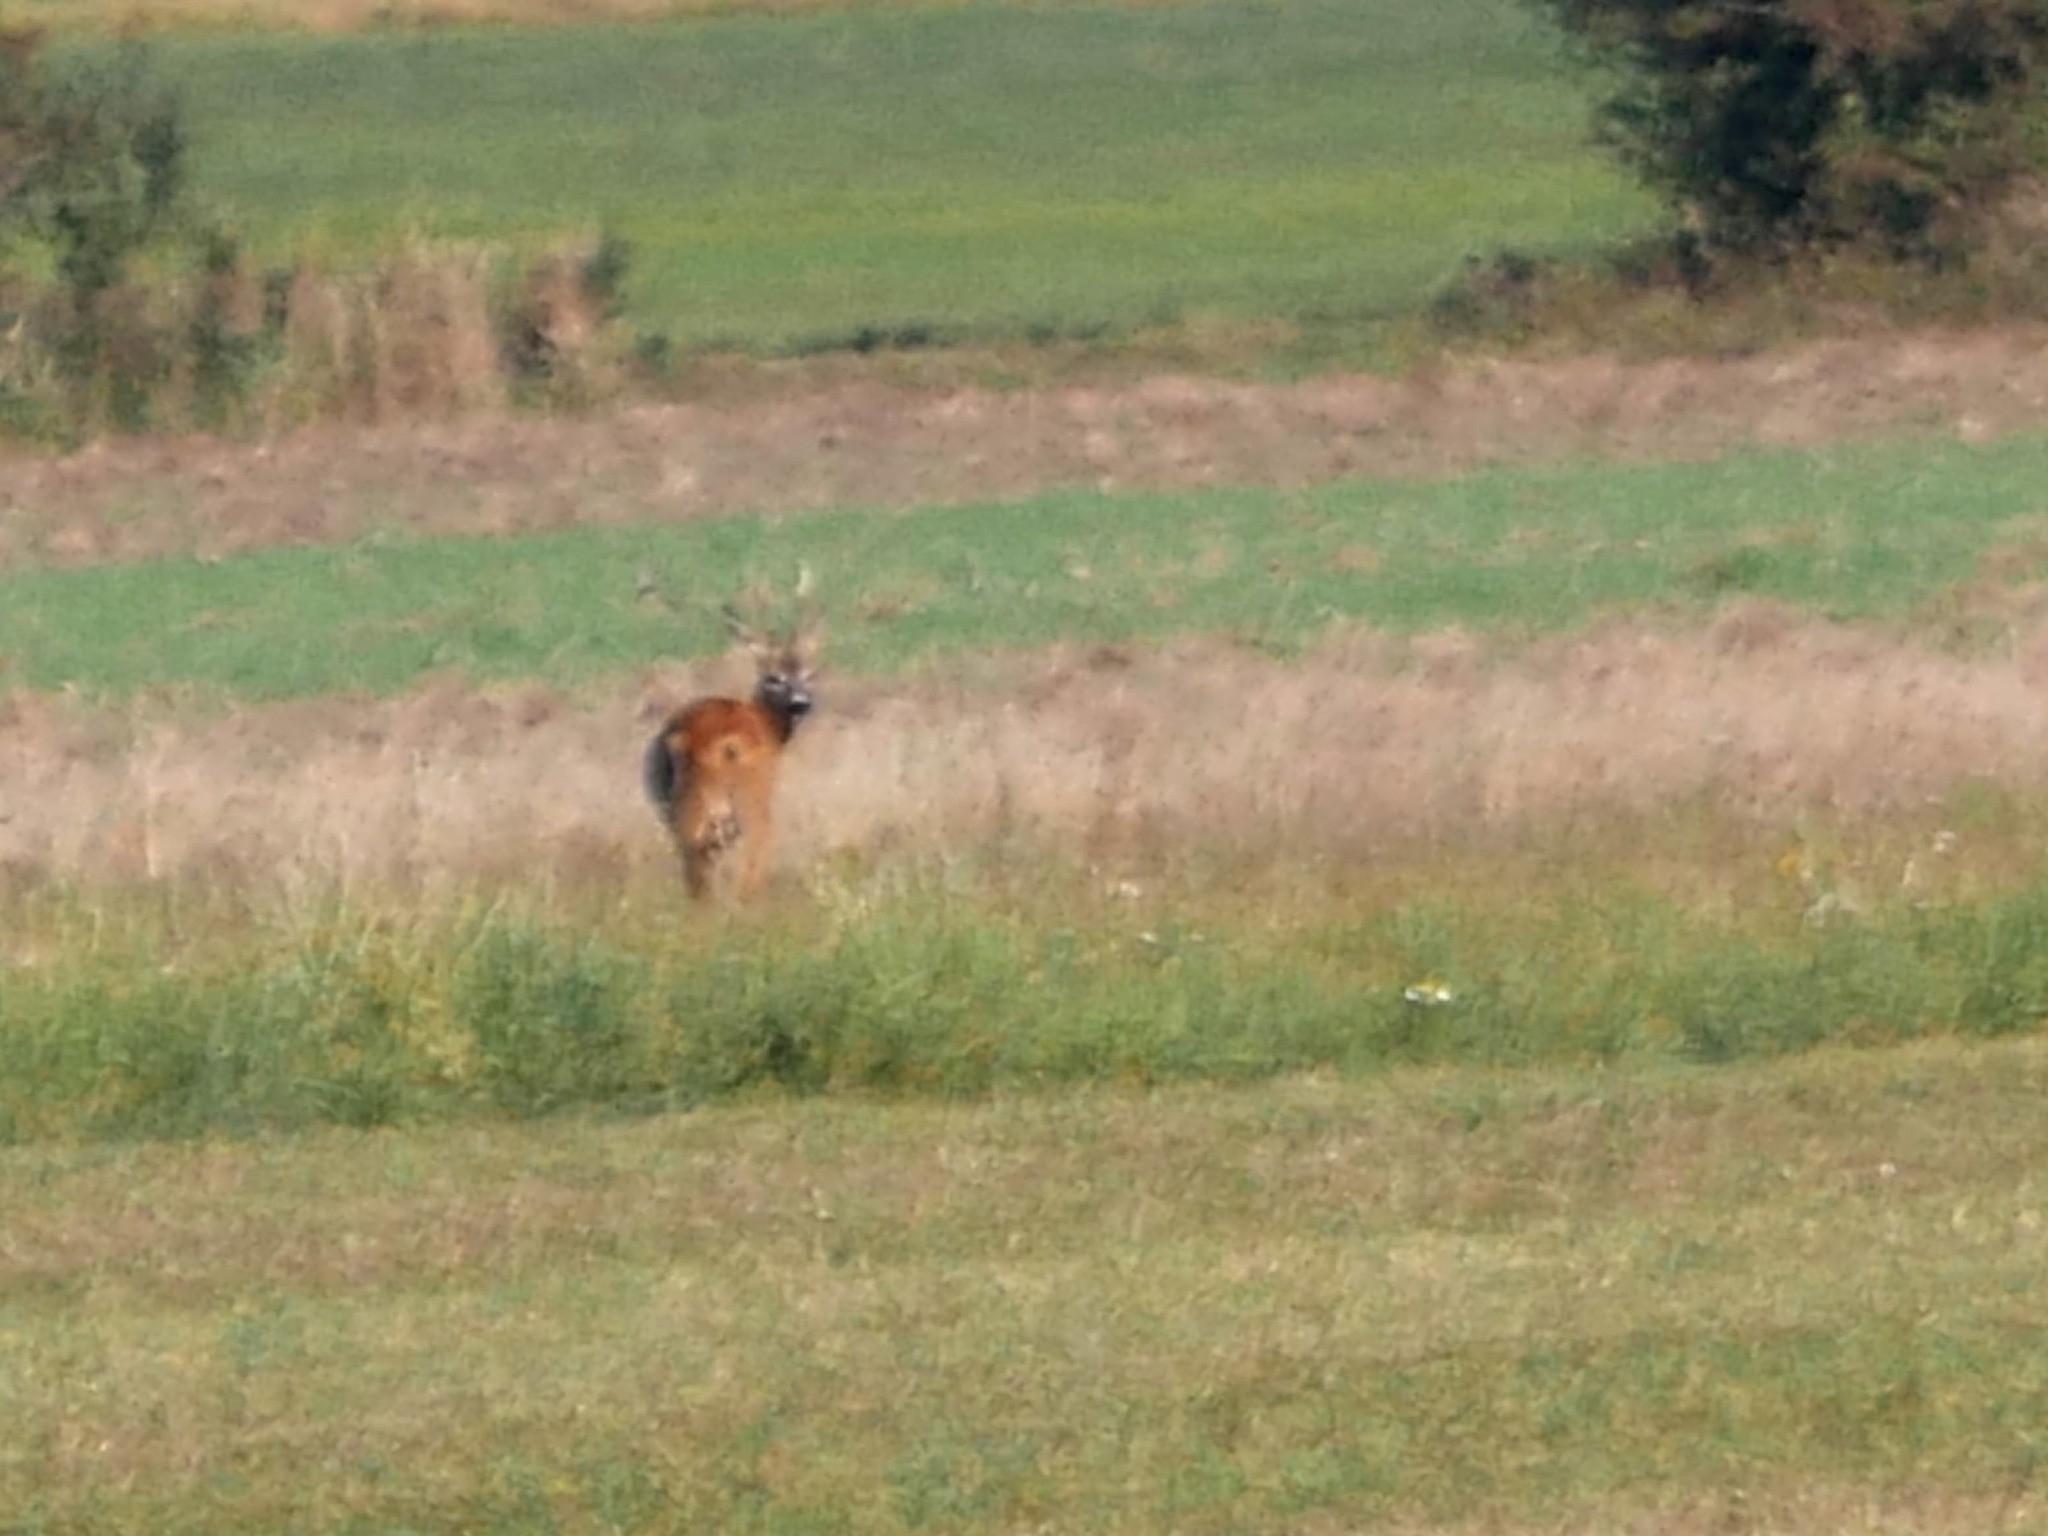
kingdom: Animalia
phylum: Chordata
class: Mammalia
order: Artiodactyla
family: Cervidae
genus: Capreolus
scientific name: Capreolus capreolus
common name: Western roe deer
